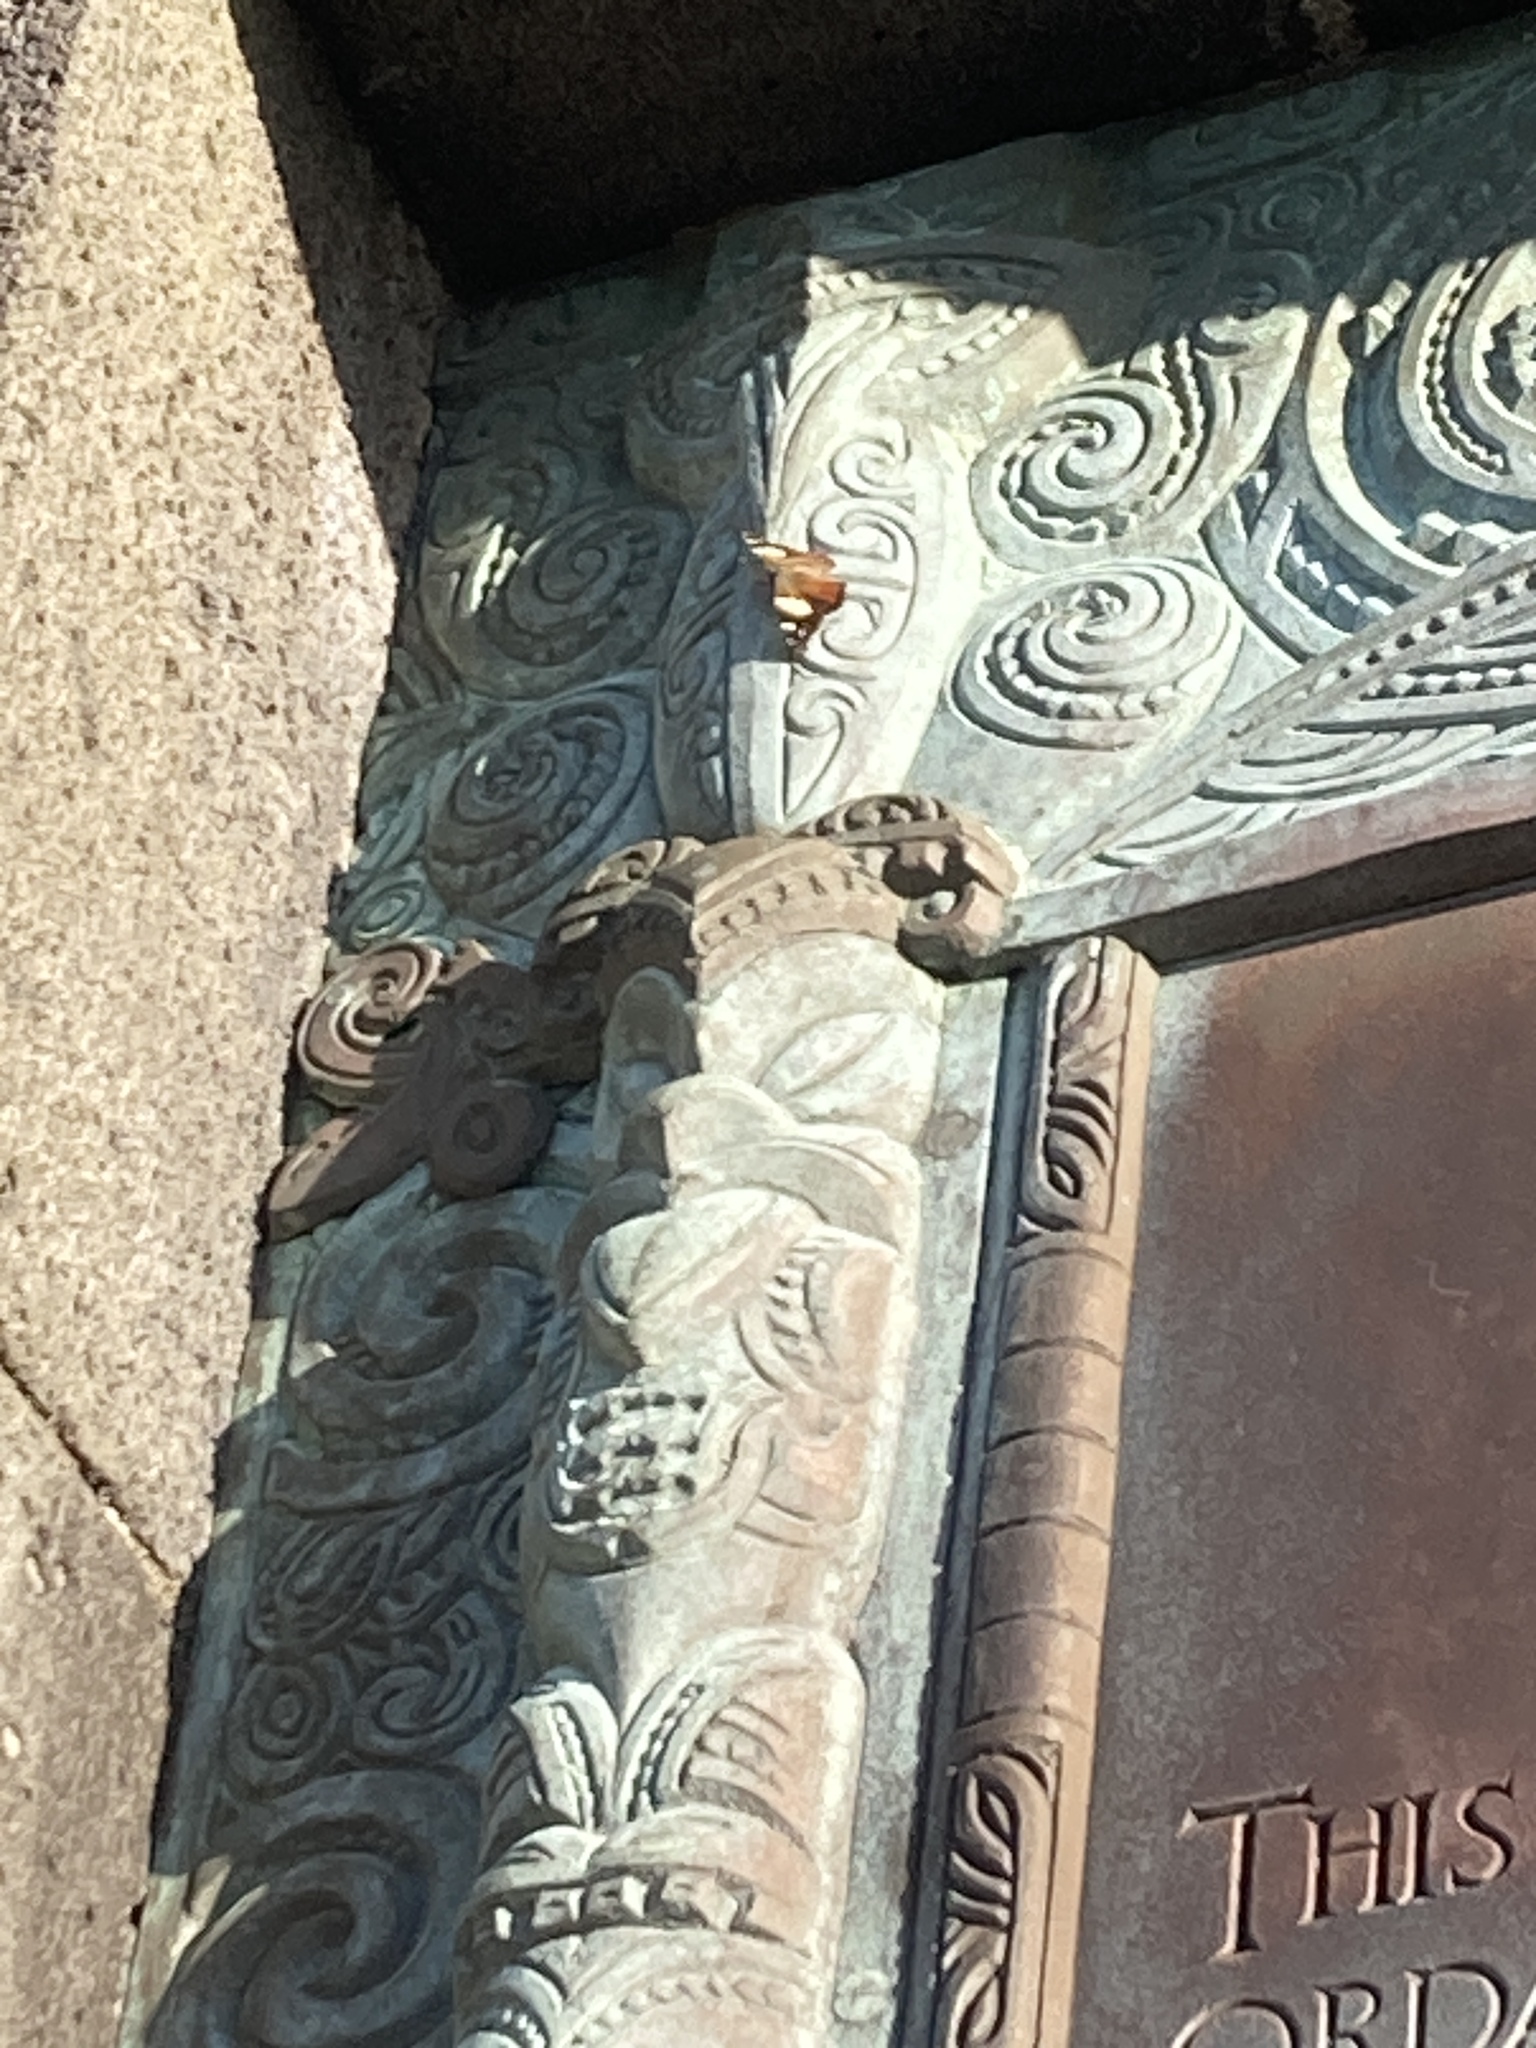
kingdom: Animalia
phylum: Arthropoda
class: Insecta
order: Lepidoptera
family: Nymphalidae
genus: Vanessa
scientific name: Vanessa itea
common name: Yellow admiral
